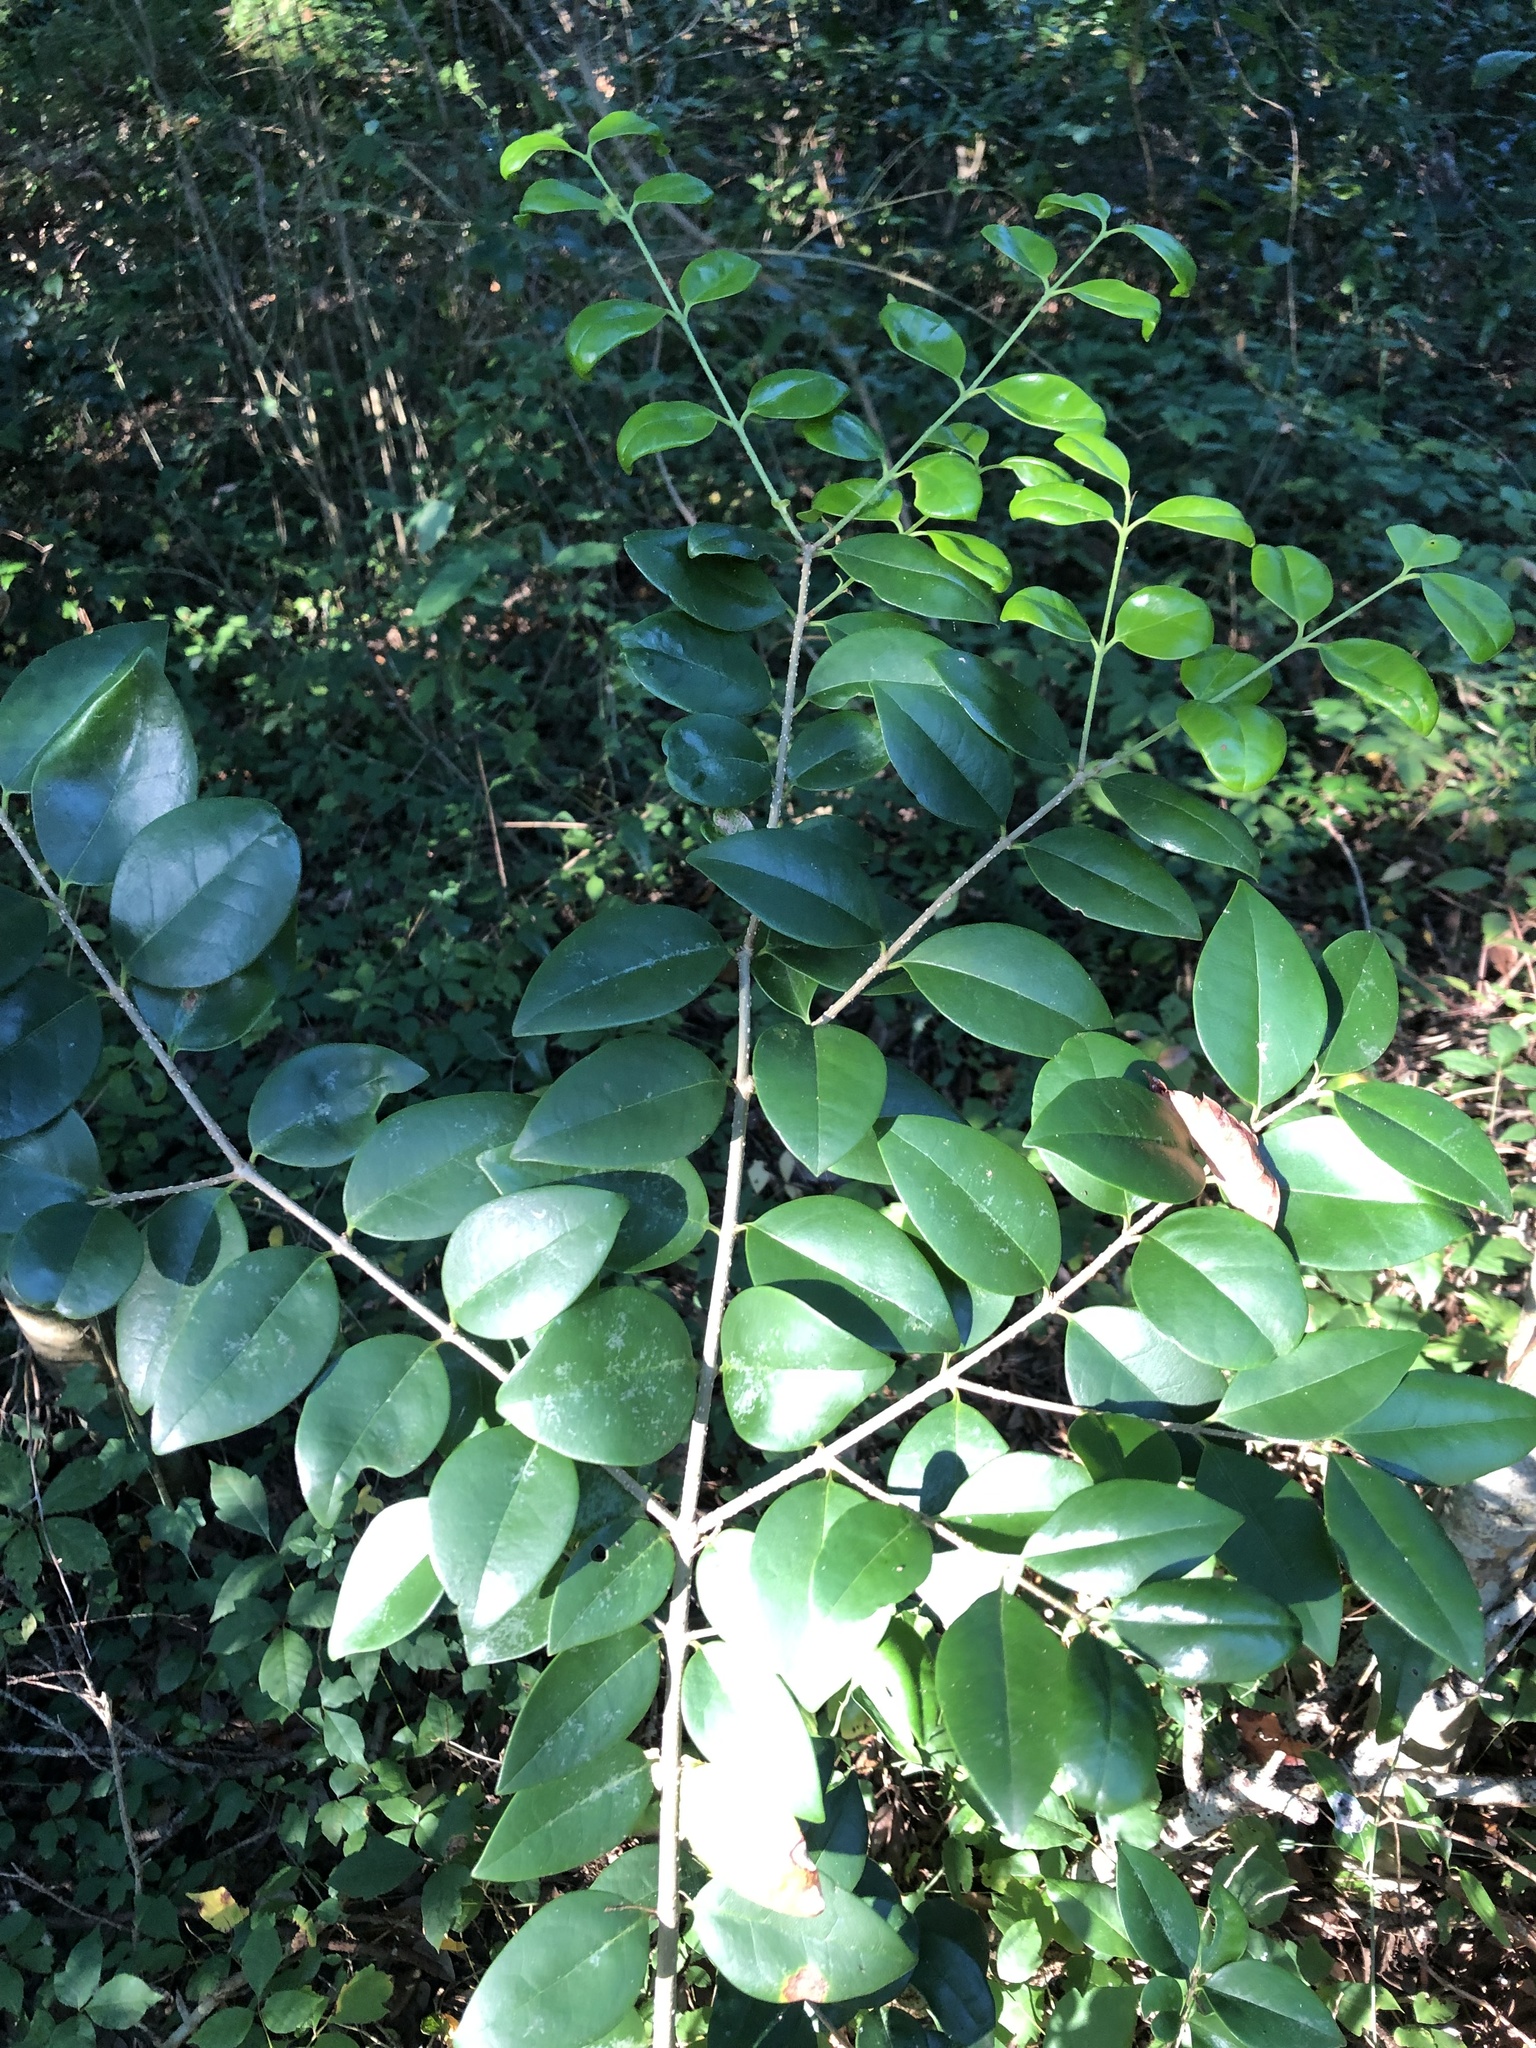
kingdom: Plantae
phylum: Tracheophyta
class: Magnoliopsida
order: Lamiales
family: Oleaceae
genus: Ligustrum
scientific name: Ligustrum sinense
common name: Chinese privet
